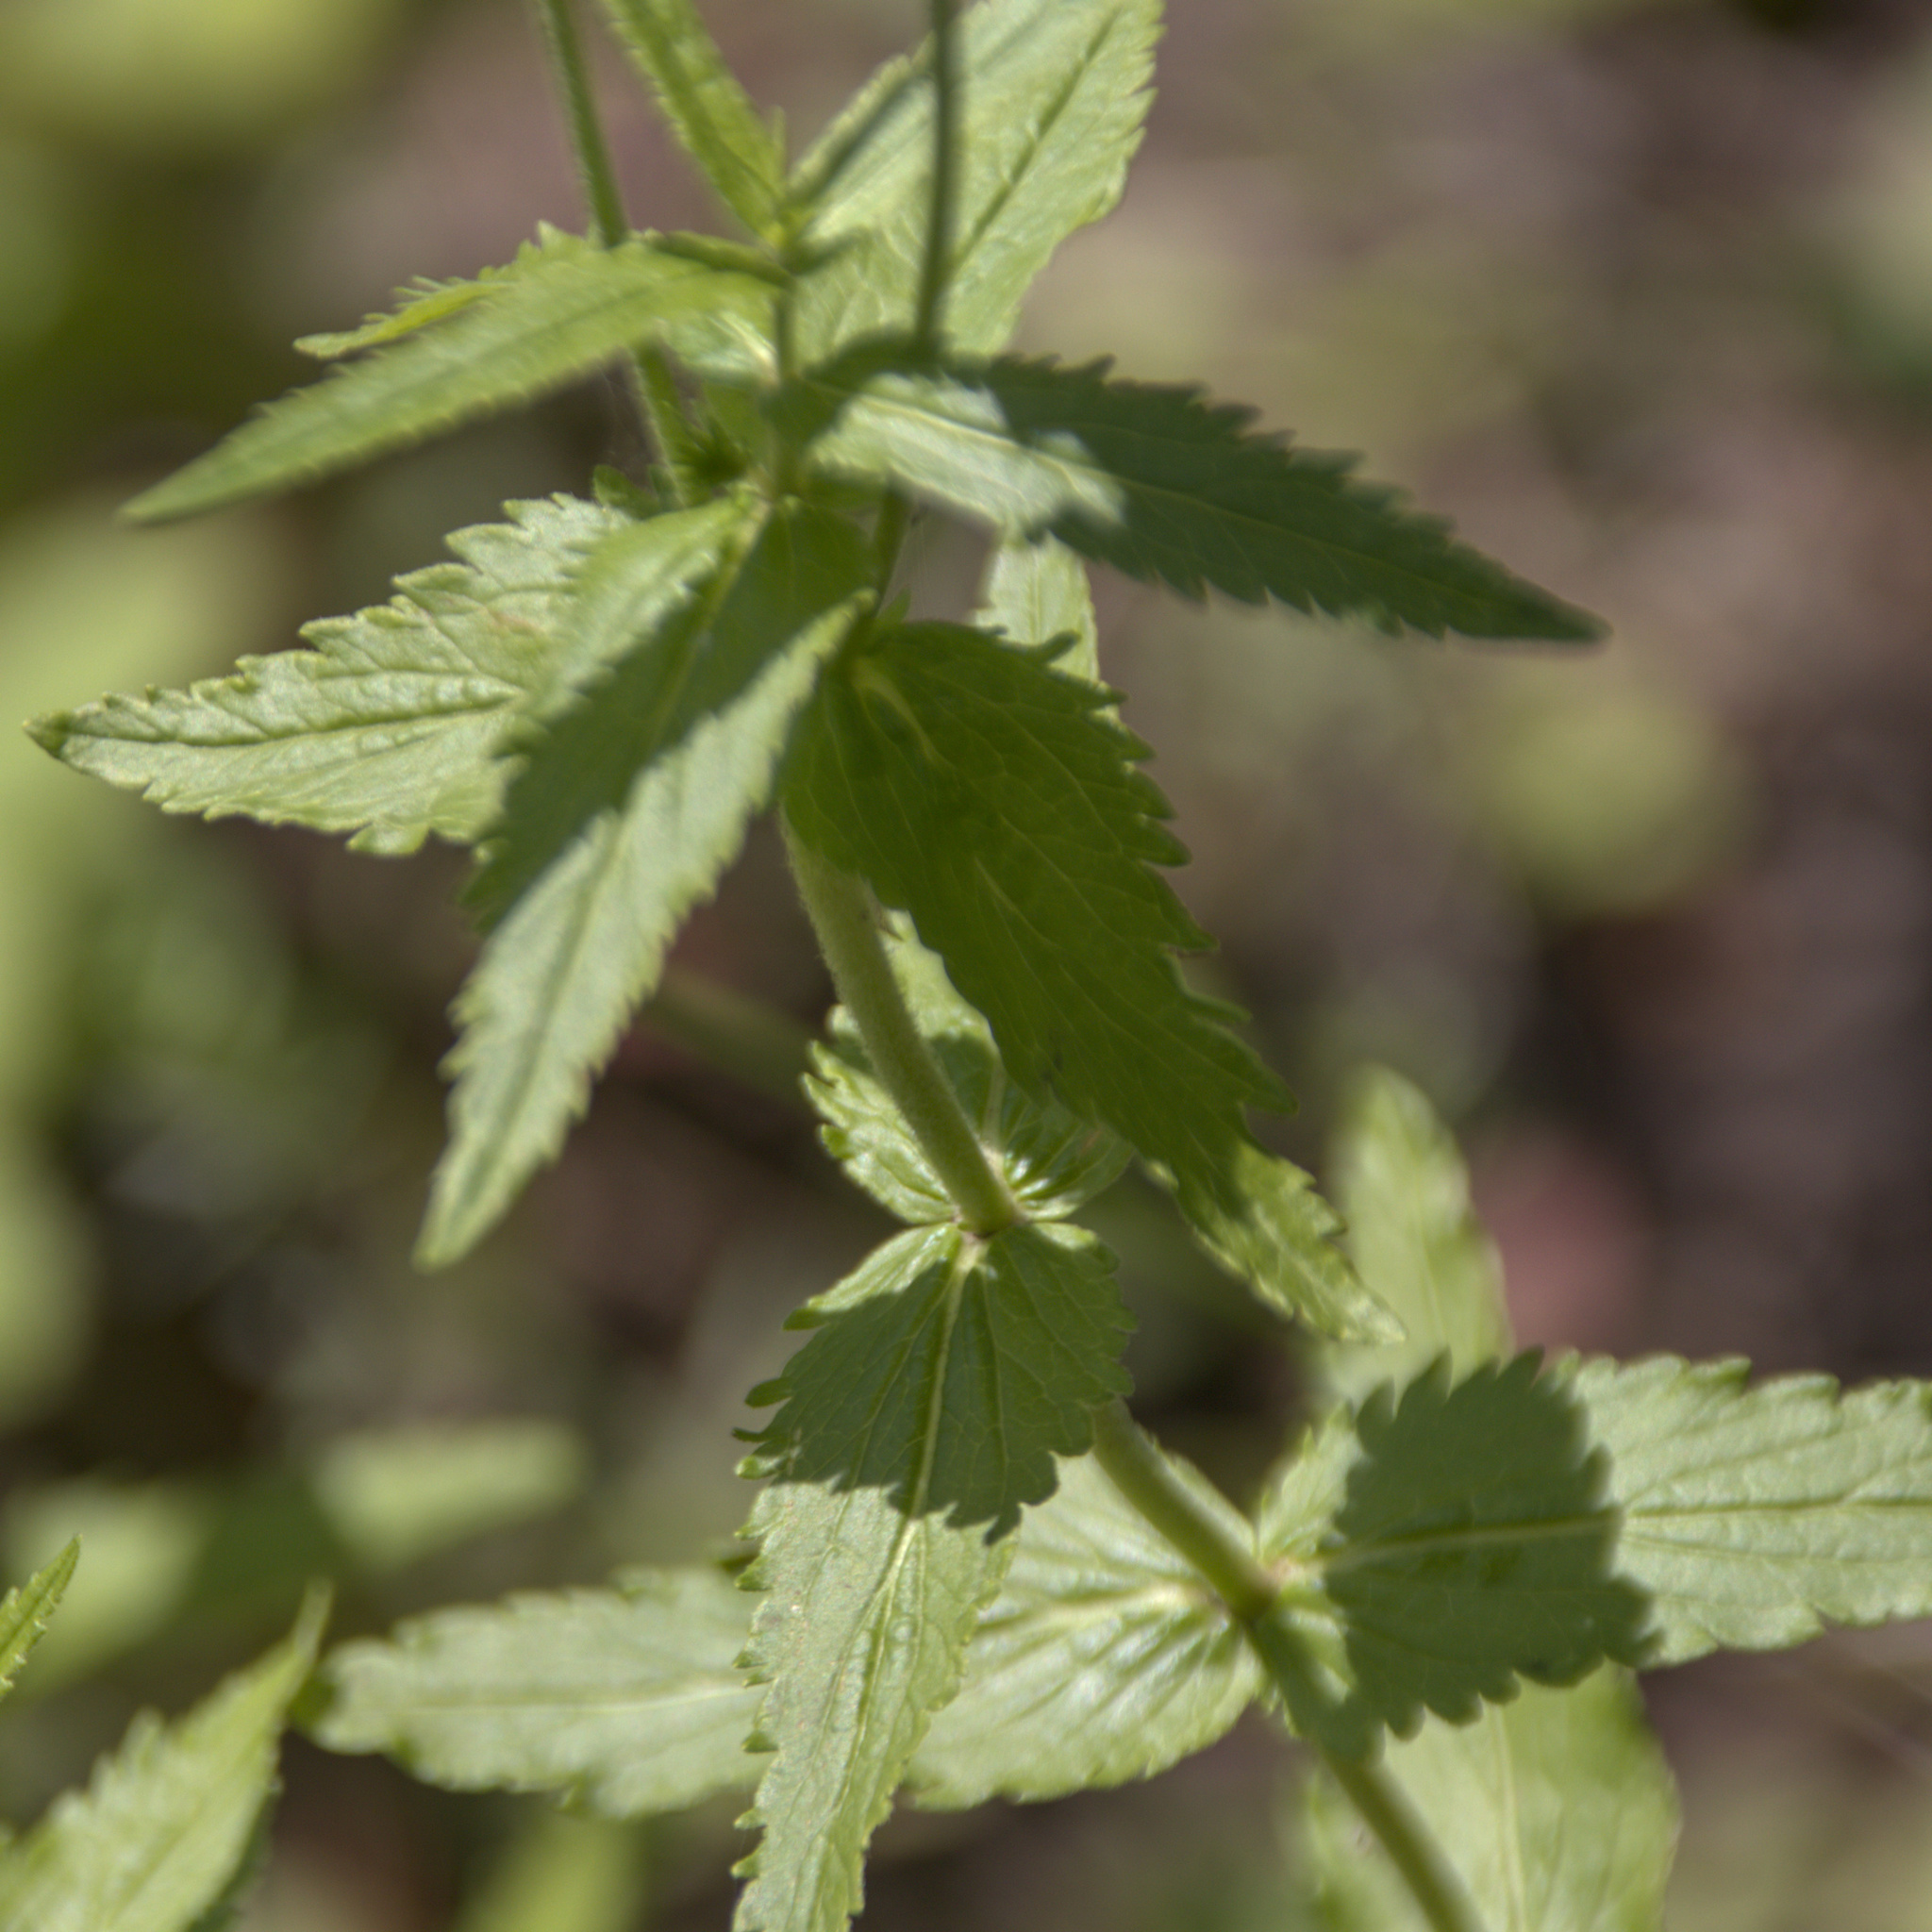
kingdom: Plantae
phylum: Tracheophyta
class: Magnoliopsida
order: Lamiales
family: Plantaginaceae
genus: Veronica
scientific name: Veronica teucrium
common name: Large speedwell
